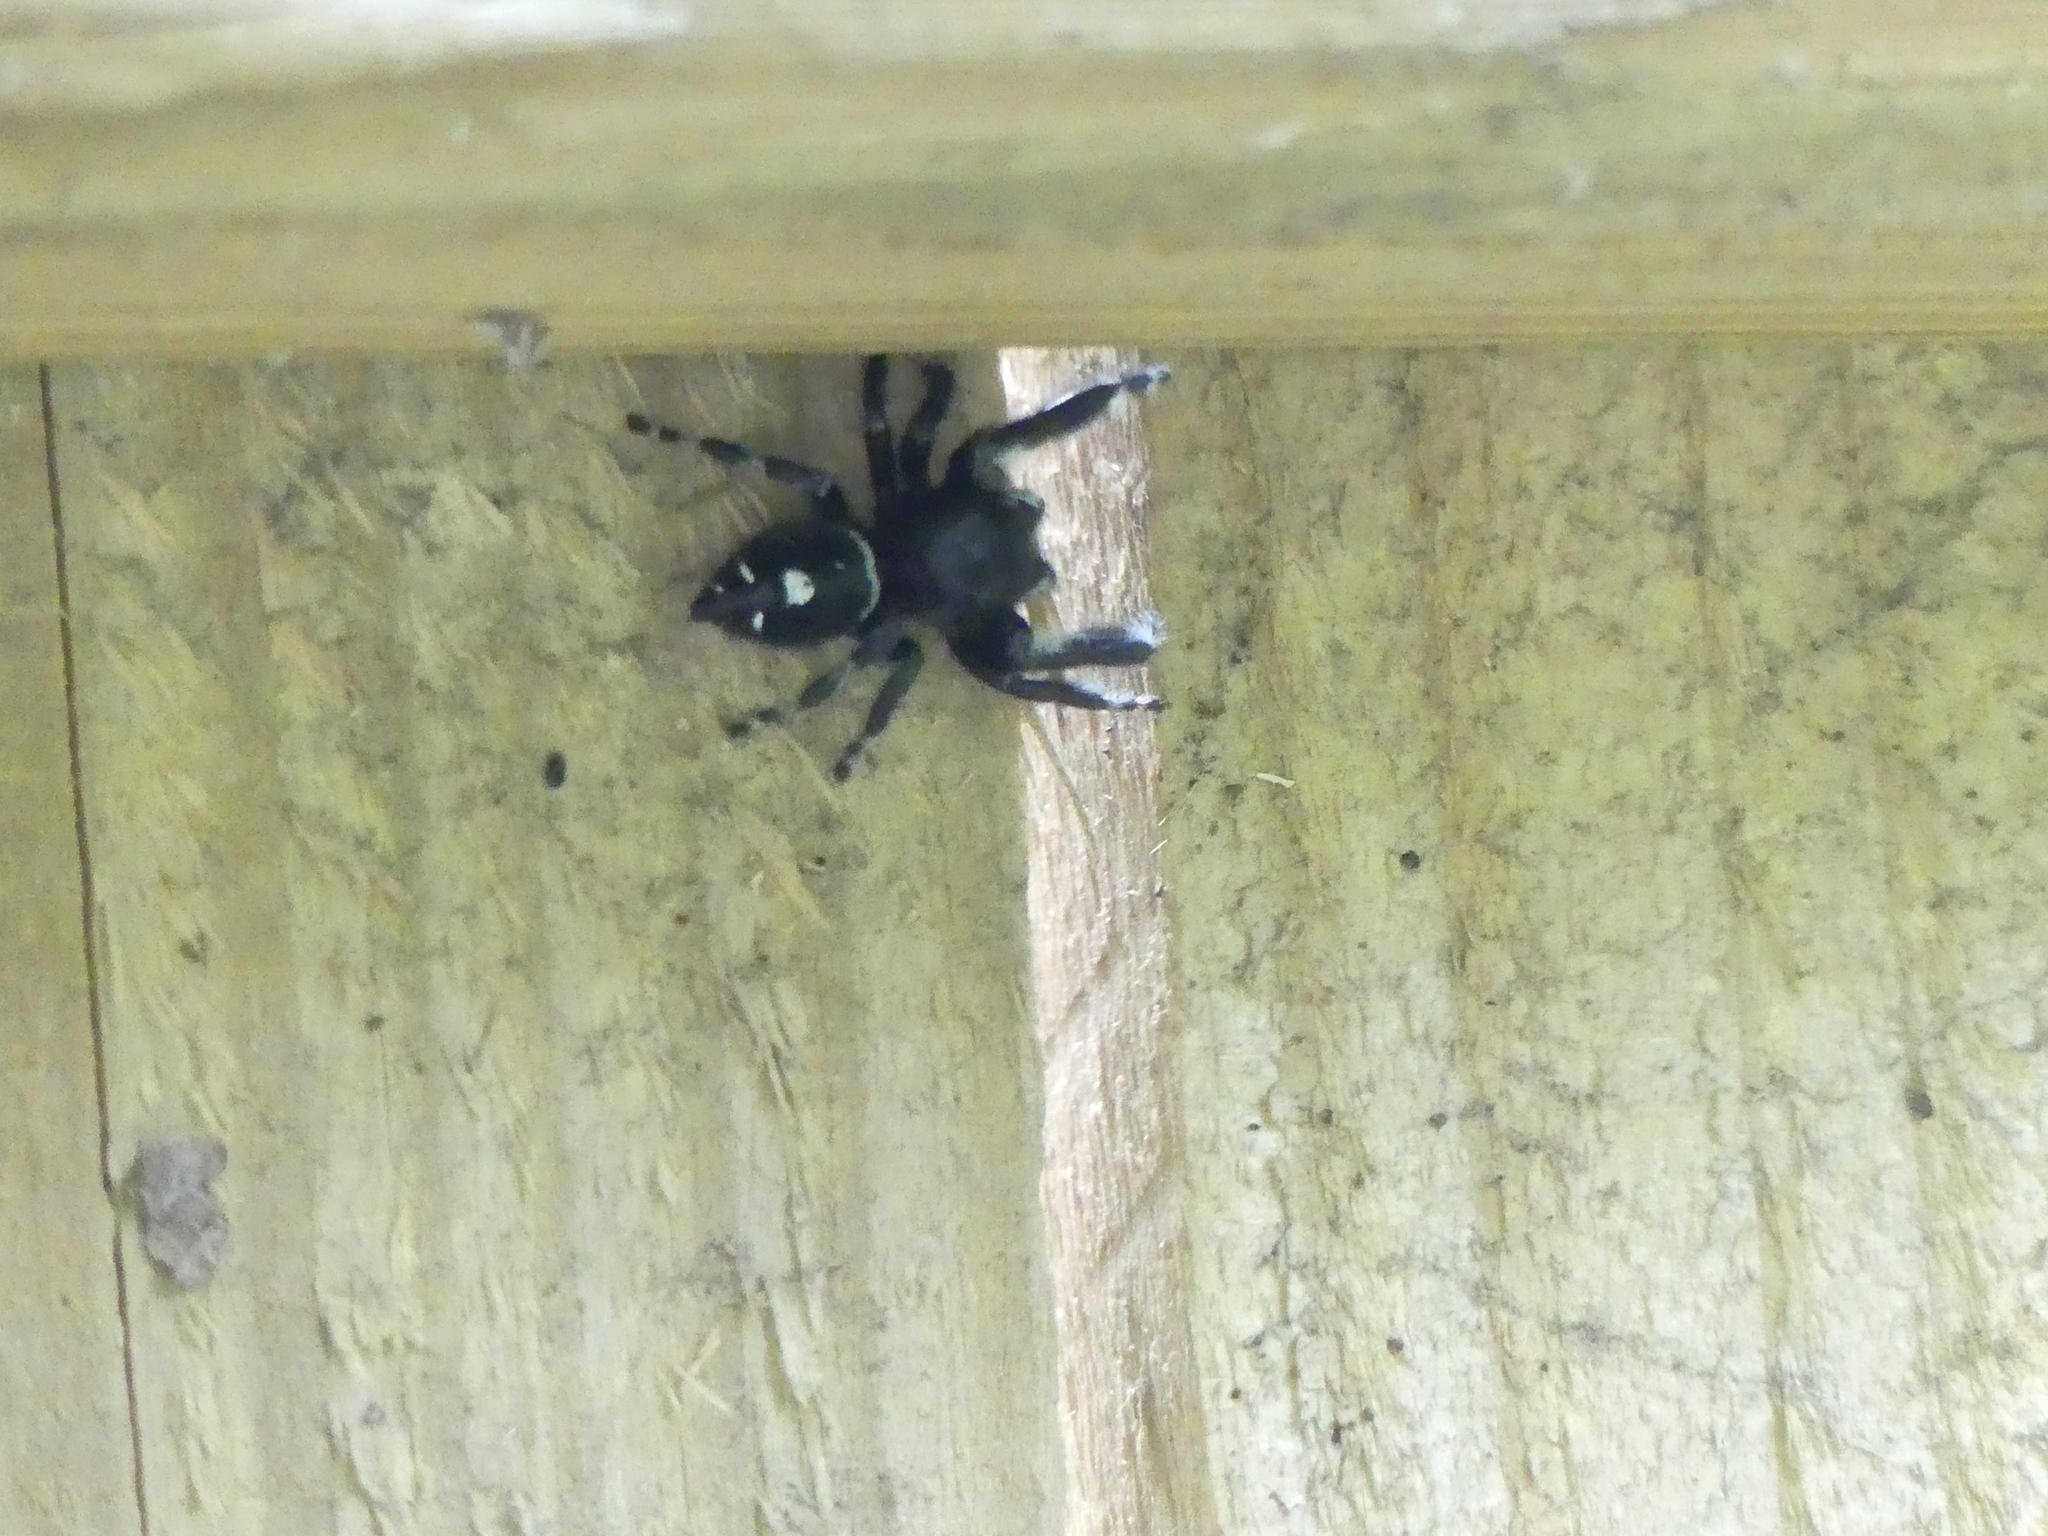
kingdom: Animalia
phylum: Arthropoda
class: Arachnida
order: Araneae
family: Salticidae
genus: Phidippus
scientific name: Phidippus audax
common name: Bold jumper
